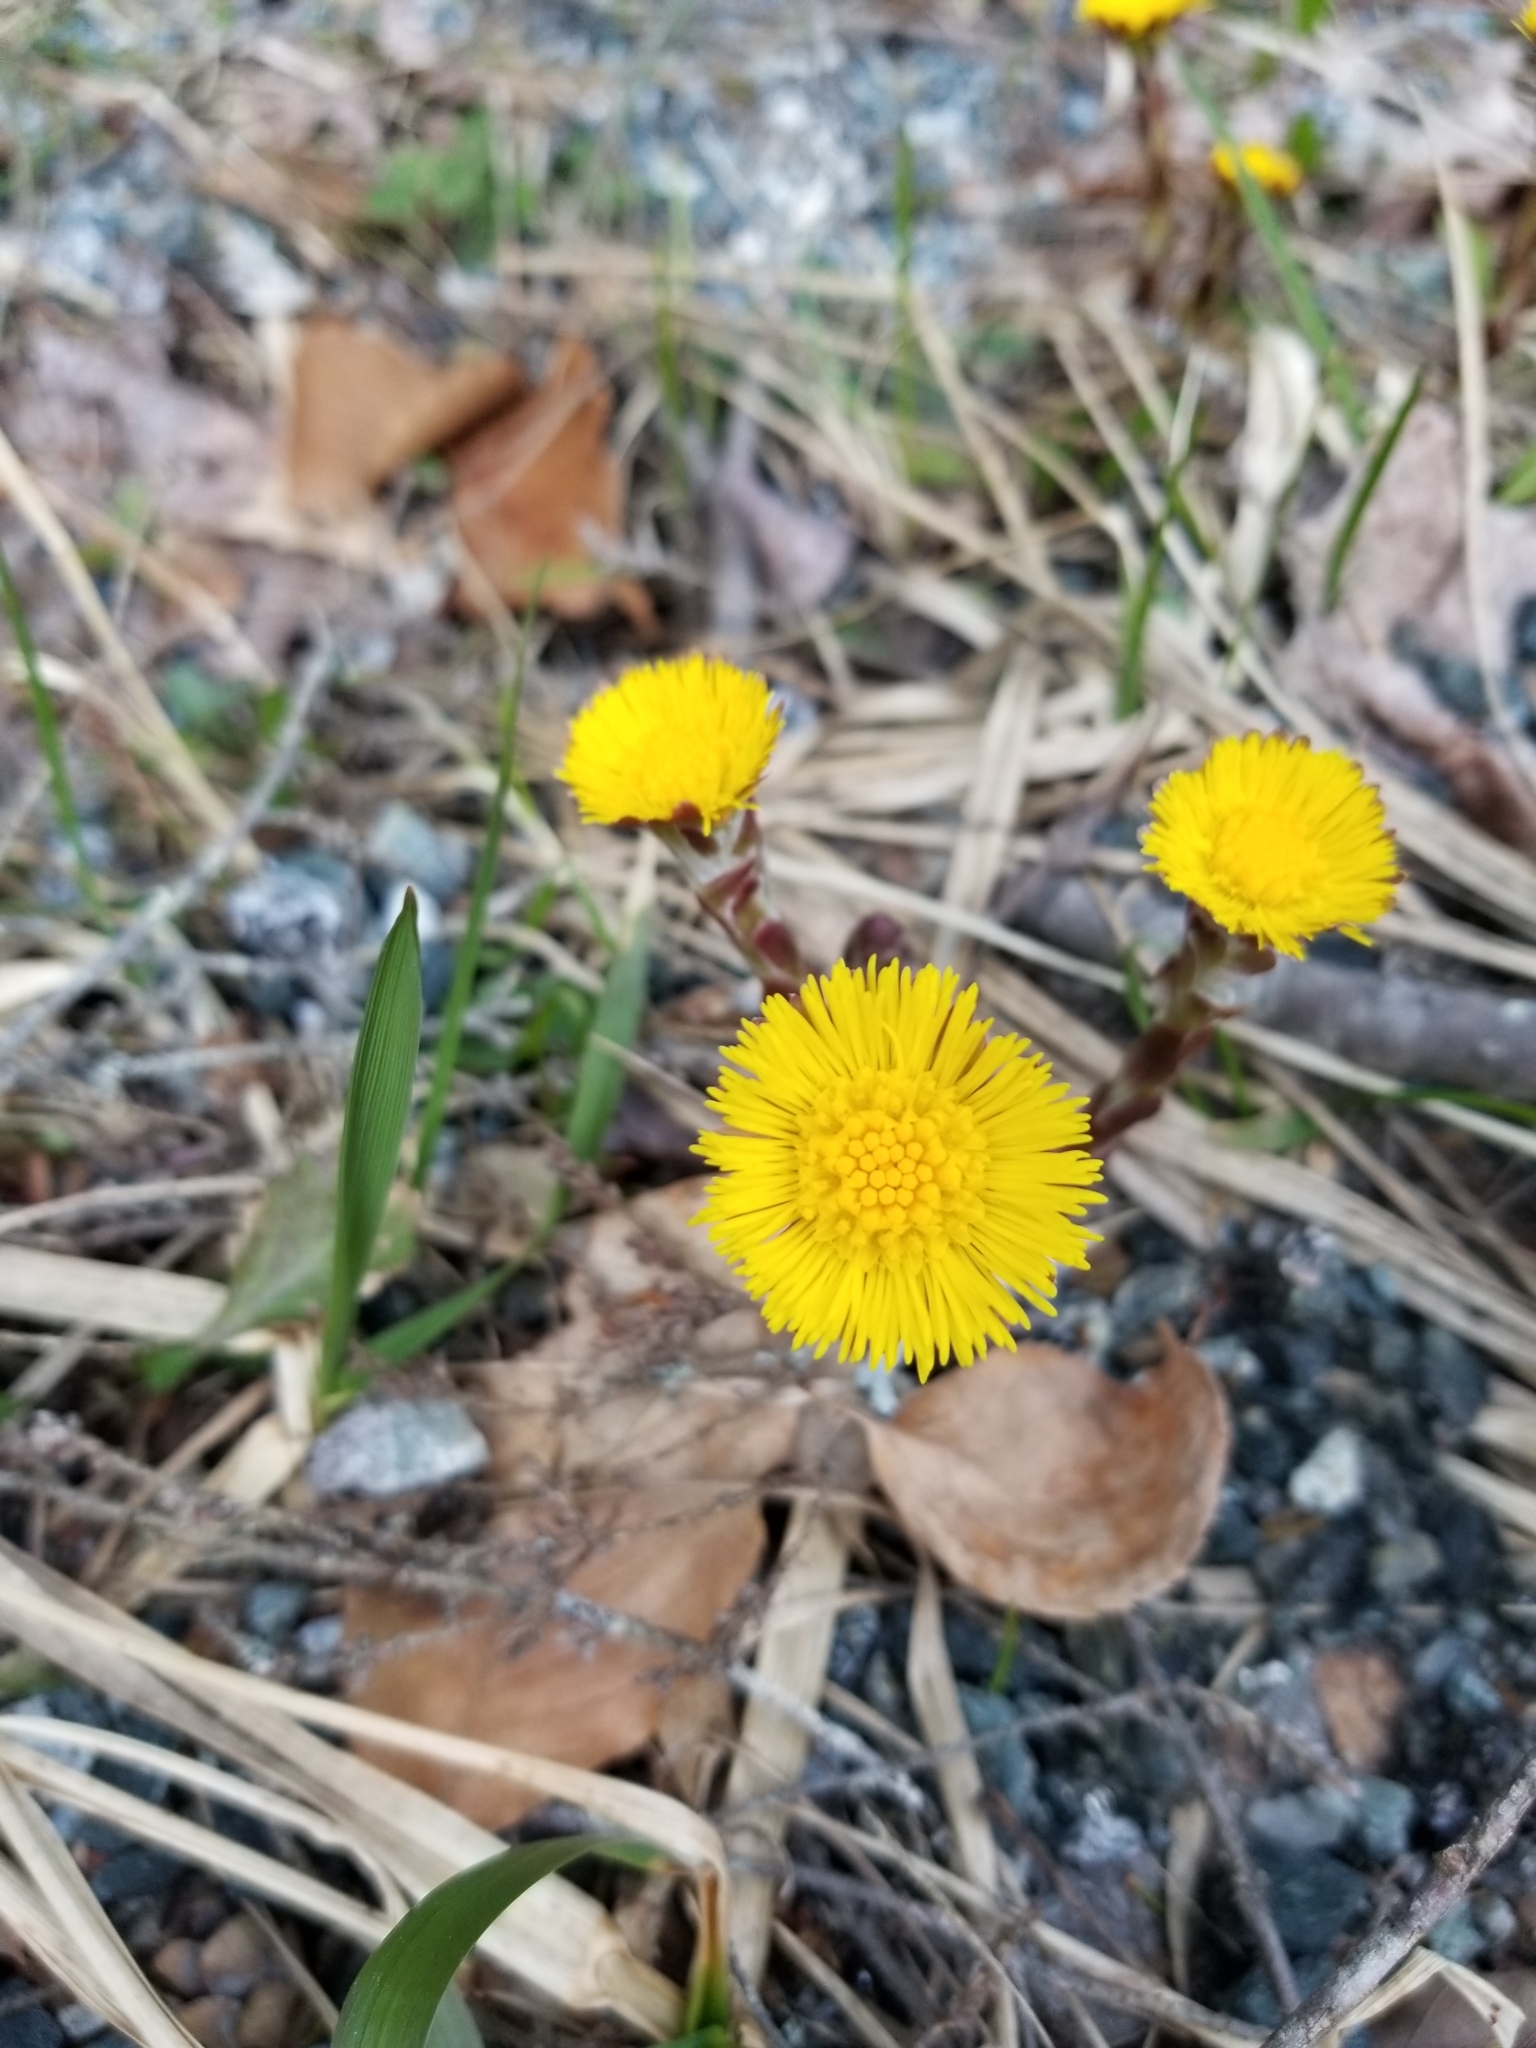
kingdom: Plantae
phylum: Tracheophyta
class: Magnoliopsida
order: Asterales
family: Asteraceae
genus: Tussilago
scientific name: Tussilago farfara
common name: Coltsfoot
